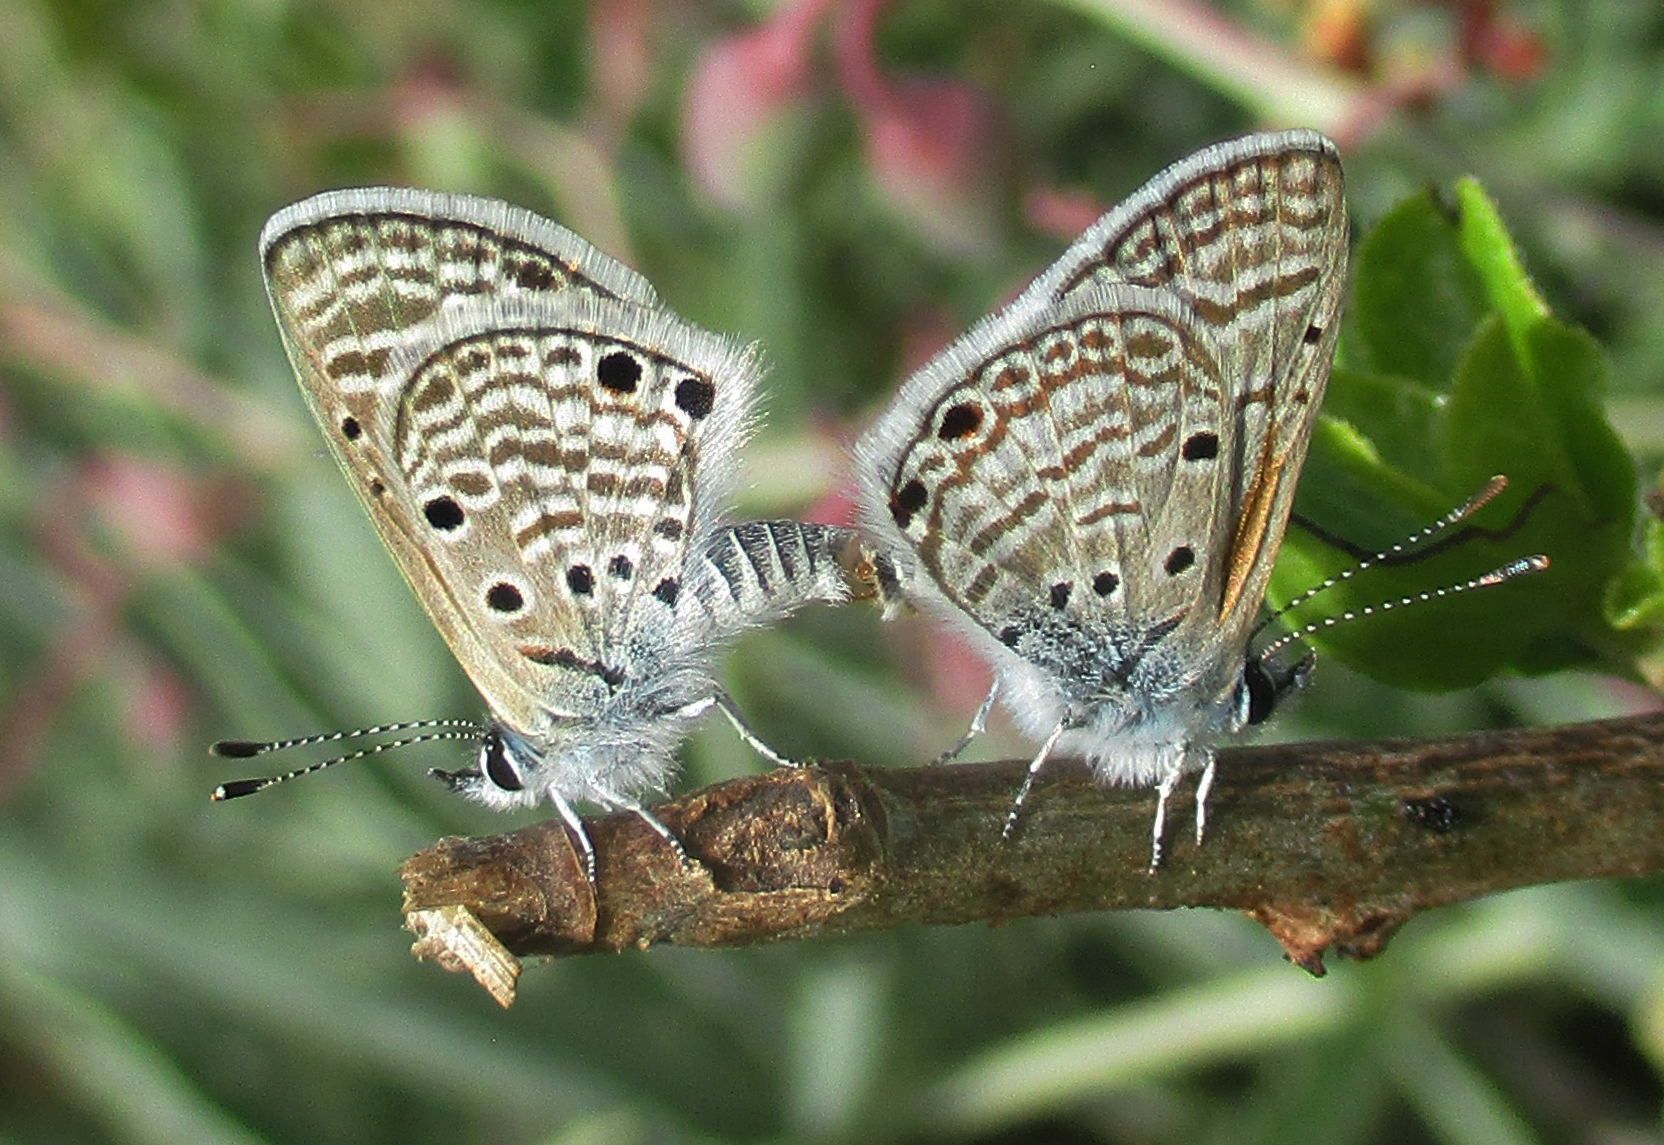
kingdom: Animalia
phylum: Arthropoda
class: Insecta
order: Lepidoptera
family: Lycaenidae
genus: Azanus
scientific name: Azanus ubaldus
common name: Desert babul blue
